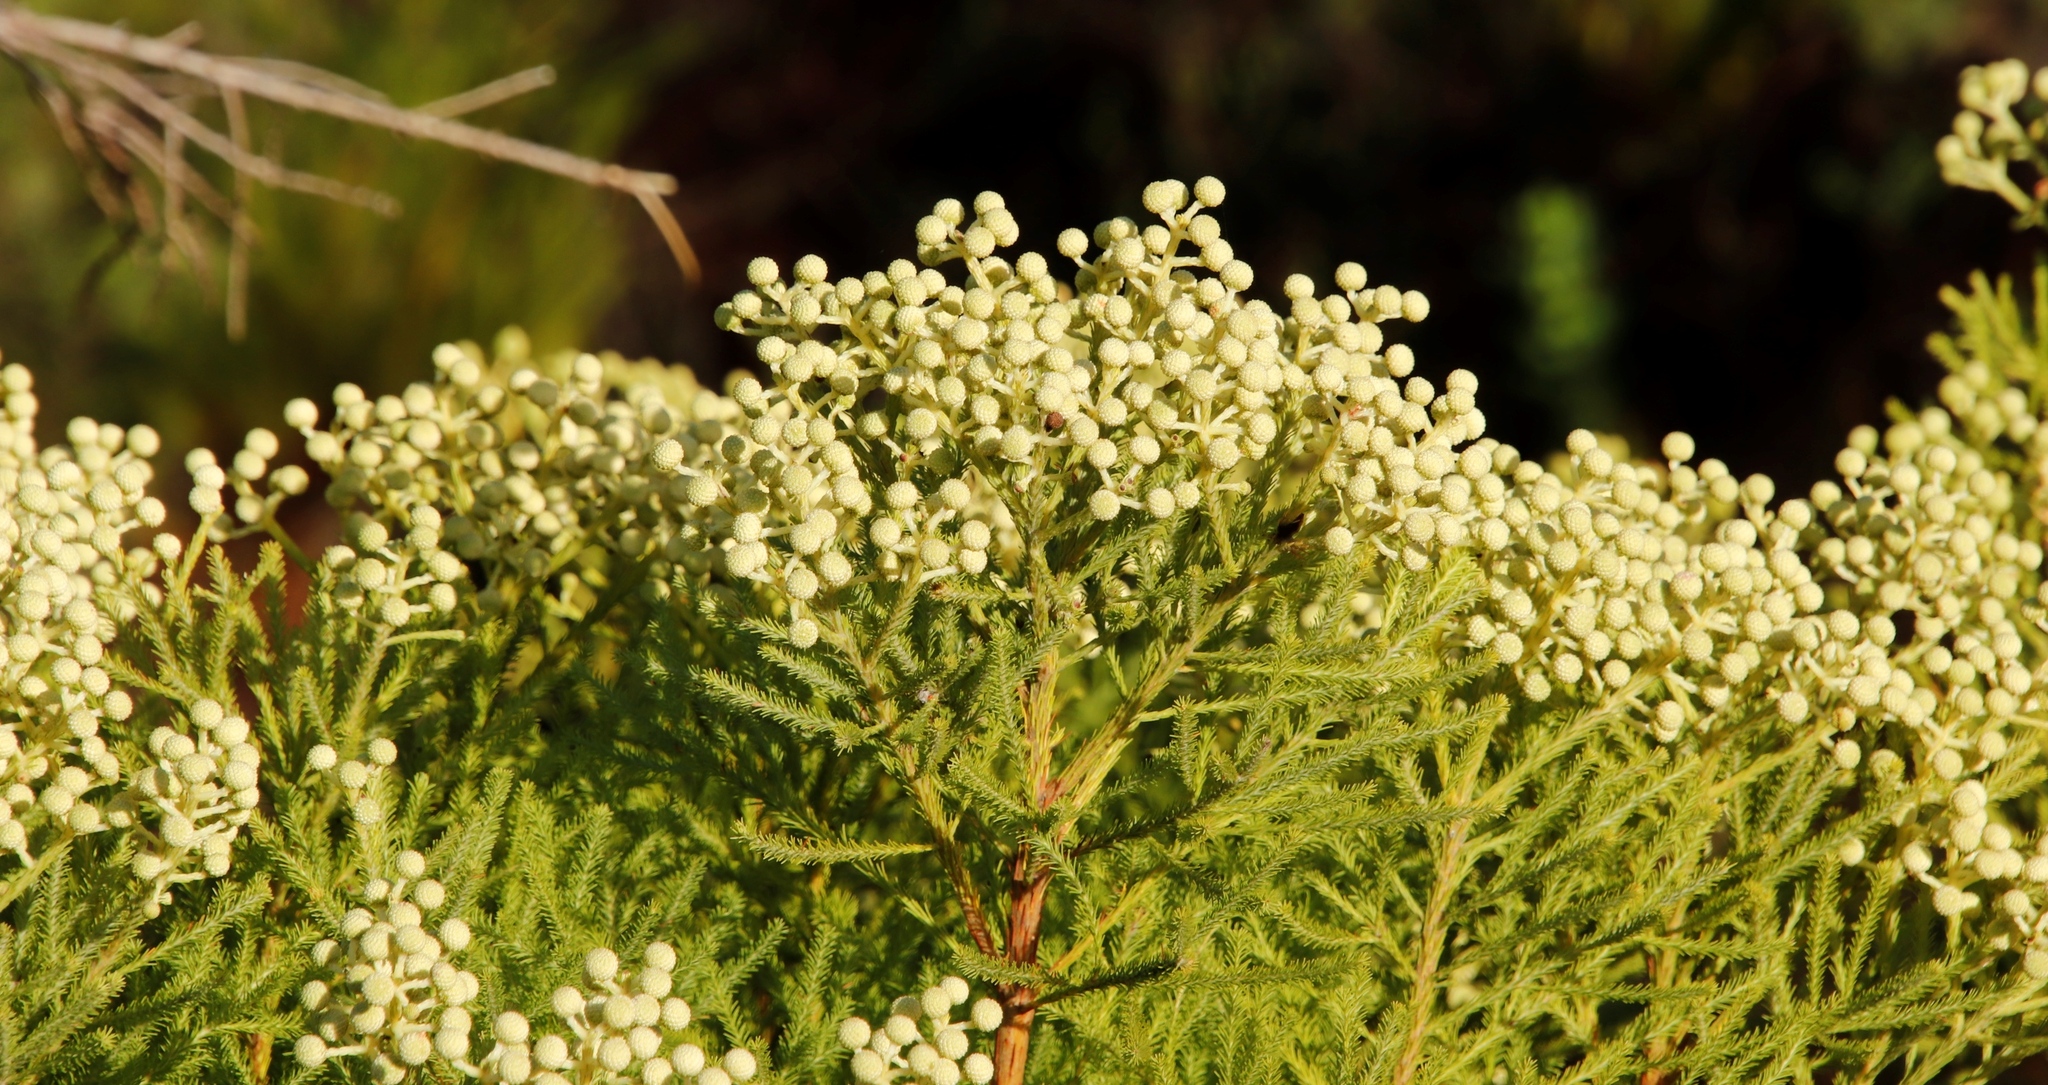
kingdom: Plantae
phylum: Tracheophyta
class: Magnoliopsida
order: Bruniales
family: Bruniaceae
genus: Berzelia
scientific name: Berzelia lanuginosa
